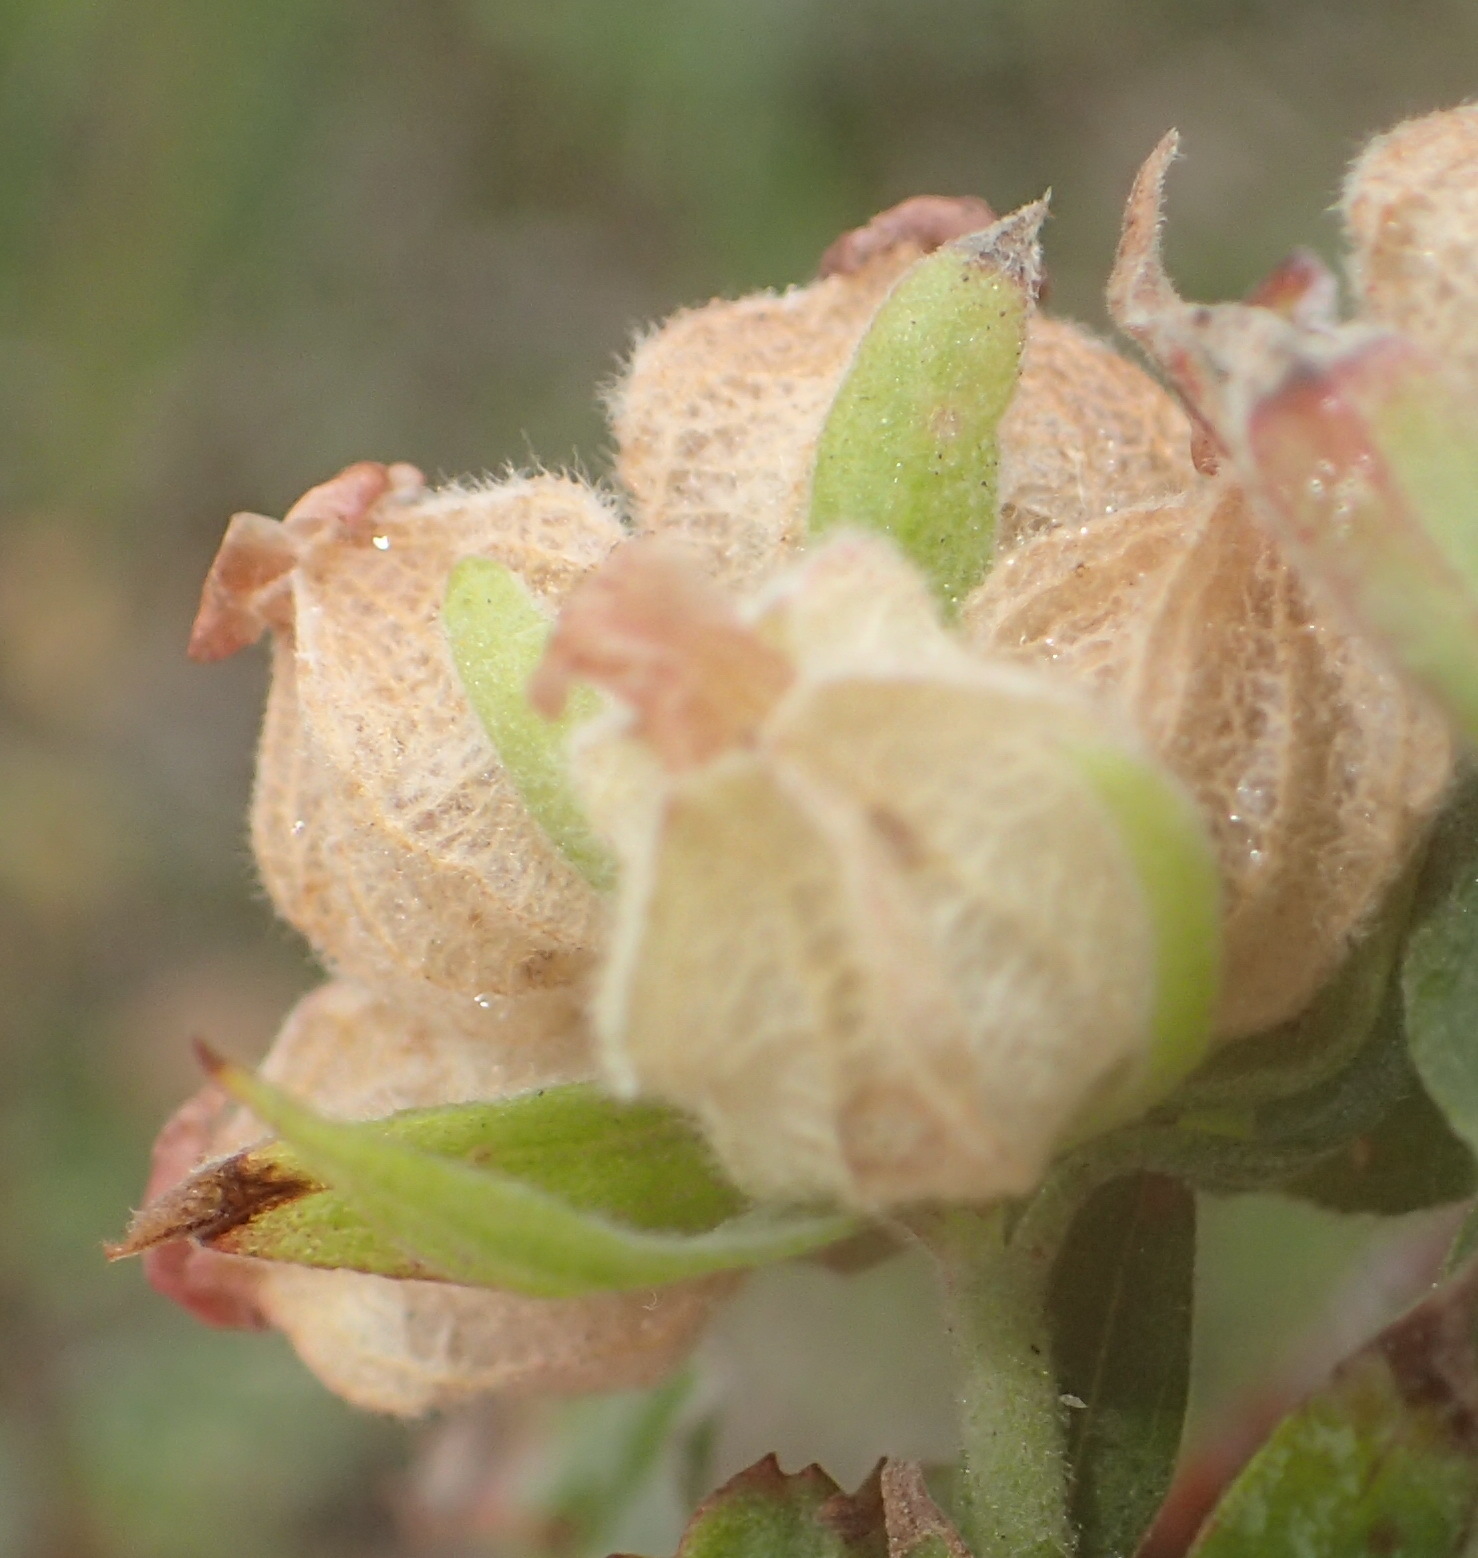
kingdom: Plantae
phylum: Tracheophyta
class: Magnoliopsida
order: Malvales
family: Malvaceae
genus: Hermannia
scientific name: Hermannia hyssopifolia
